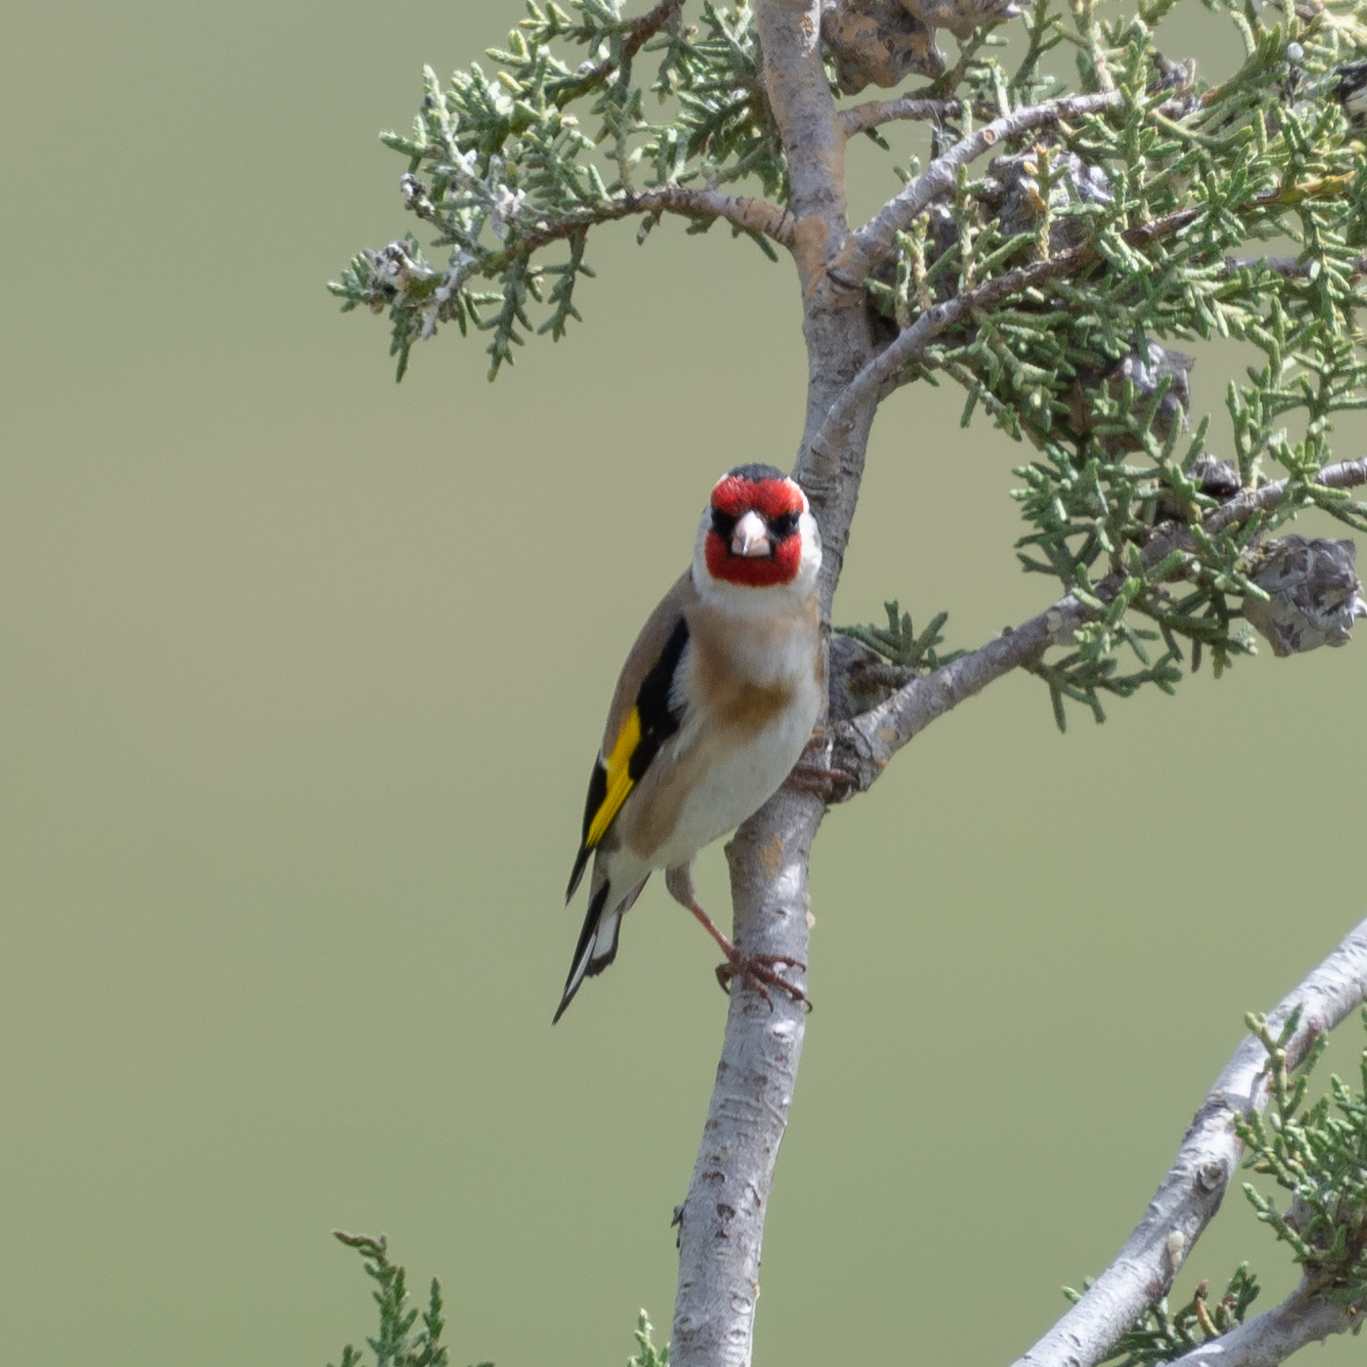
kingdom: Animalia
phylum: Chordata
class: Aves
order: Passeriformes
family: Fringillidae
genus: Carduelis
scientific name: Carduelis carduelis
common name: European goldfinch
